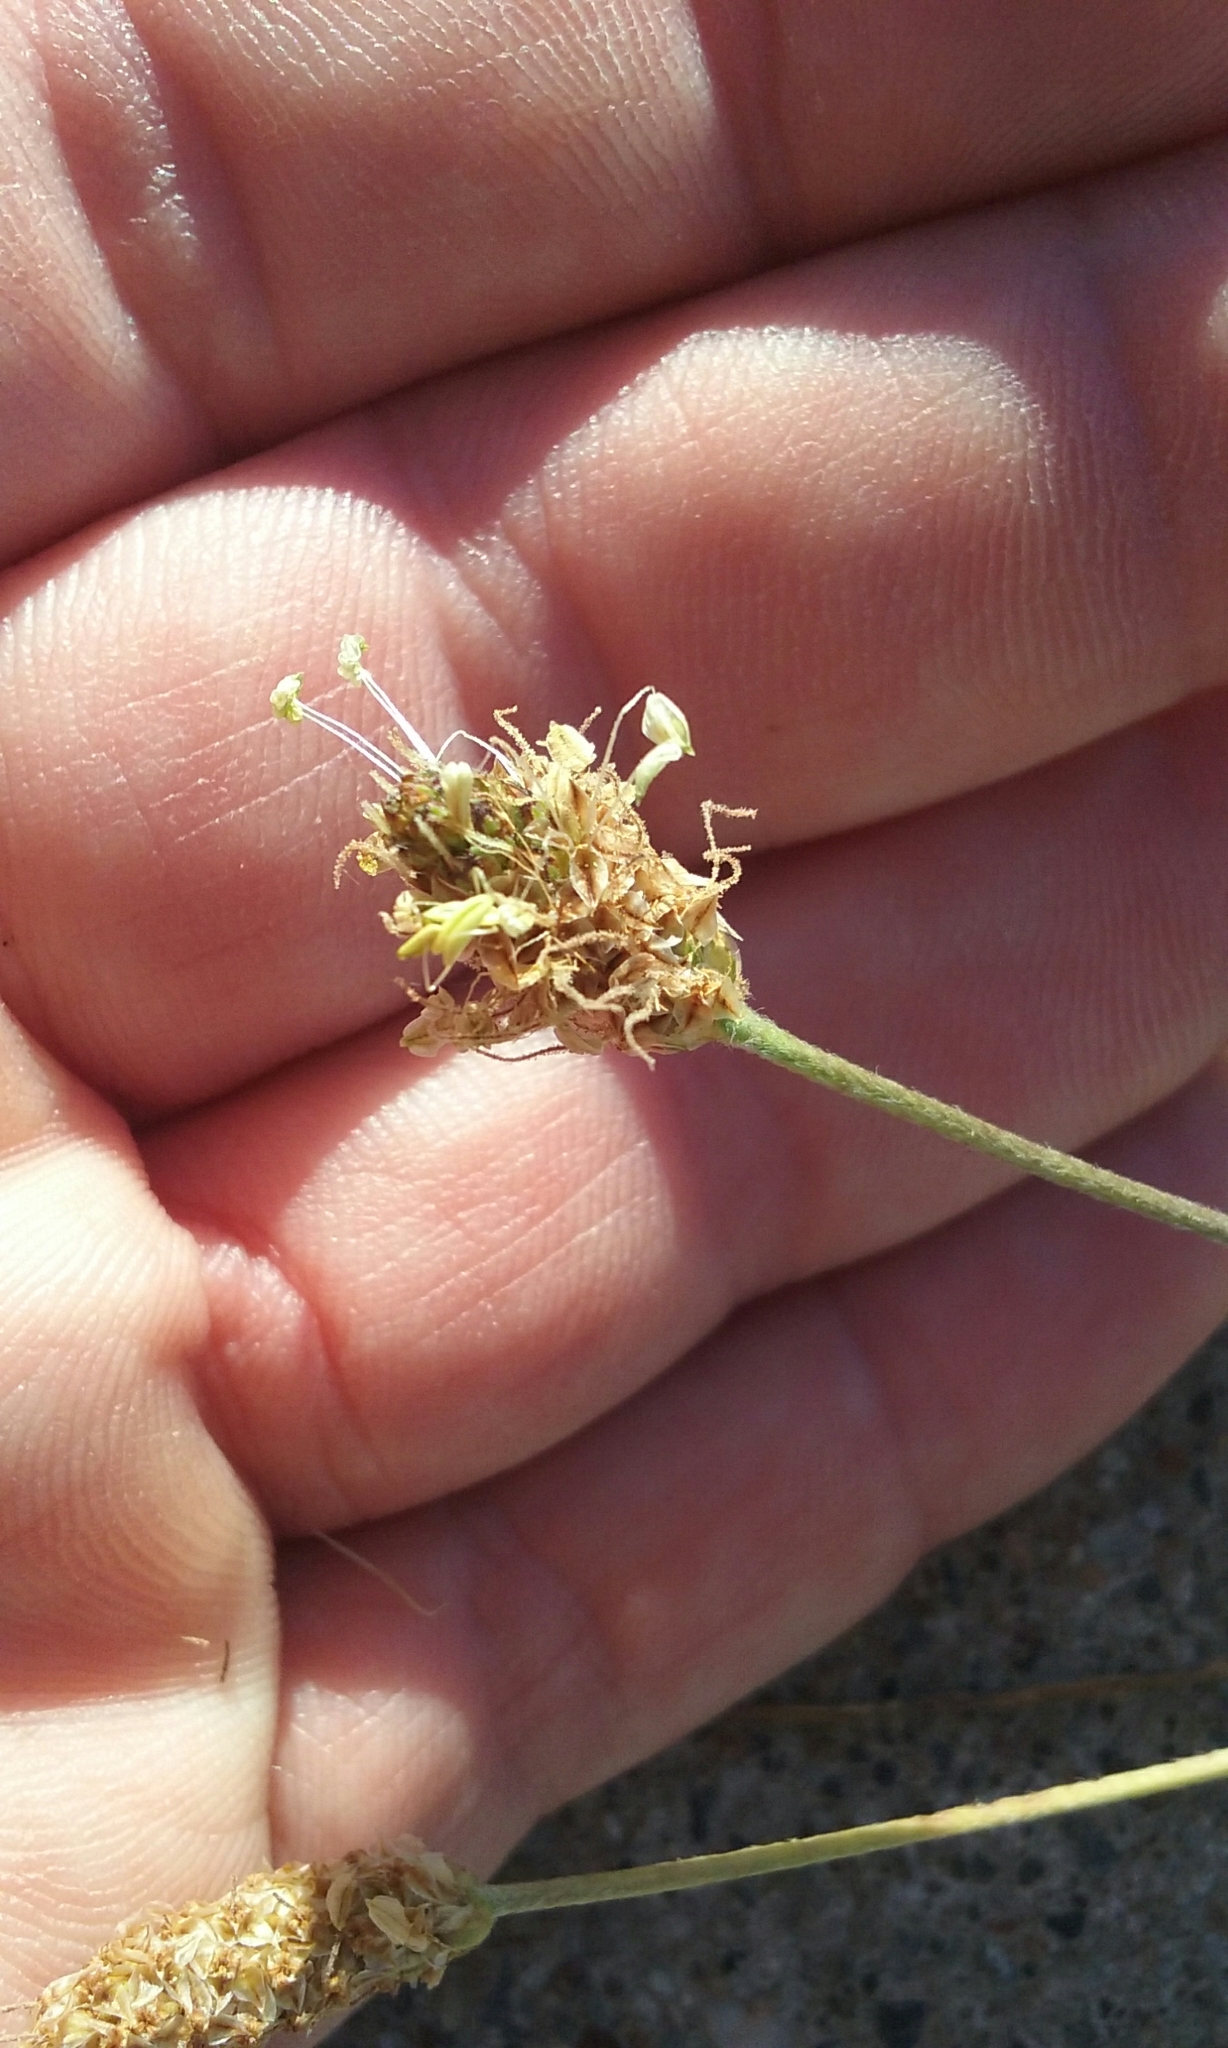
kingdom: Plantae
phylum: Tracheophyta
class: Magnoliopsida
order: Lamiales
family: Plantaginaceae
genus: Plantago
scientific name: Plantago lanceolata
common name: Ribwort plantain
